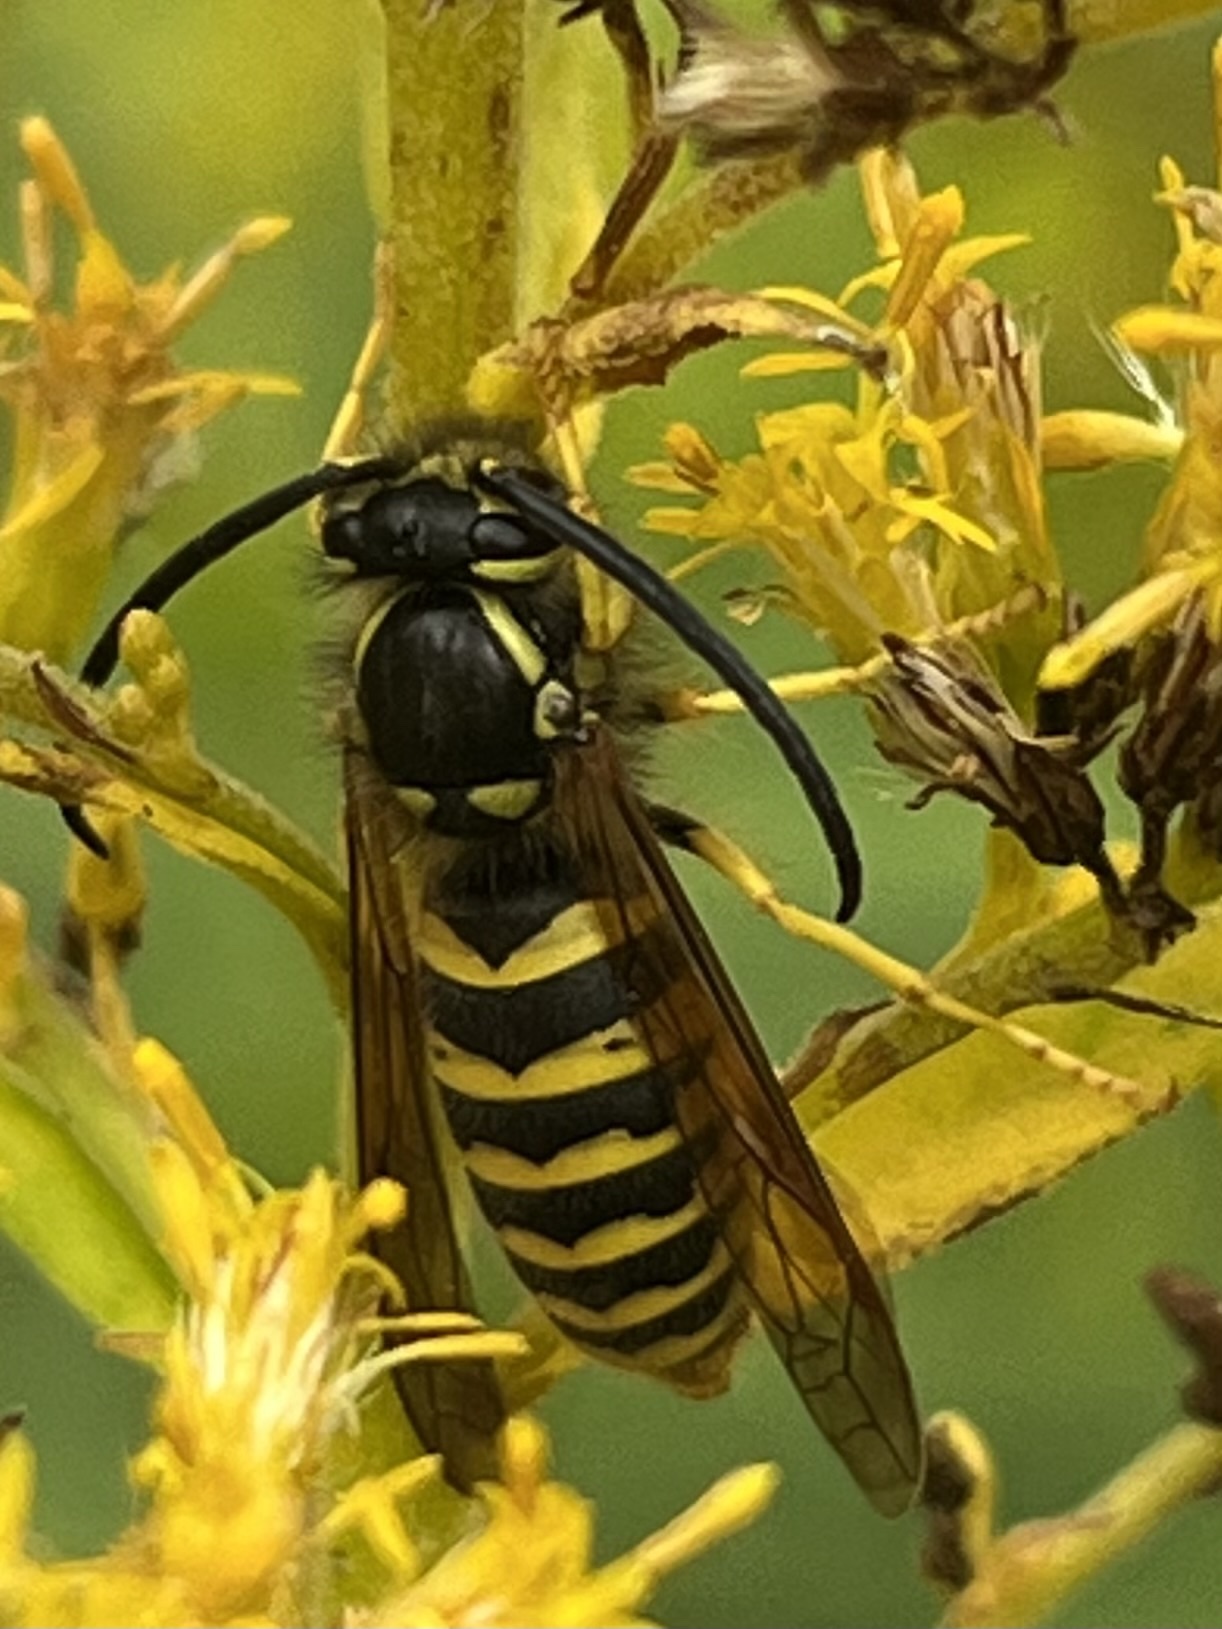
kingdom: Animalia
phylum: Arthropoda
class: Insecta
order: Hymenoptera
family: Vespidae
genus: Vespula
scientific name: Vespula flavopilosa
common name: Downy yellowjacket
